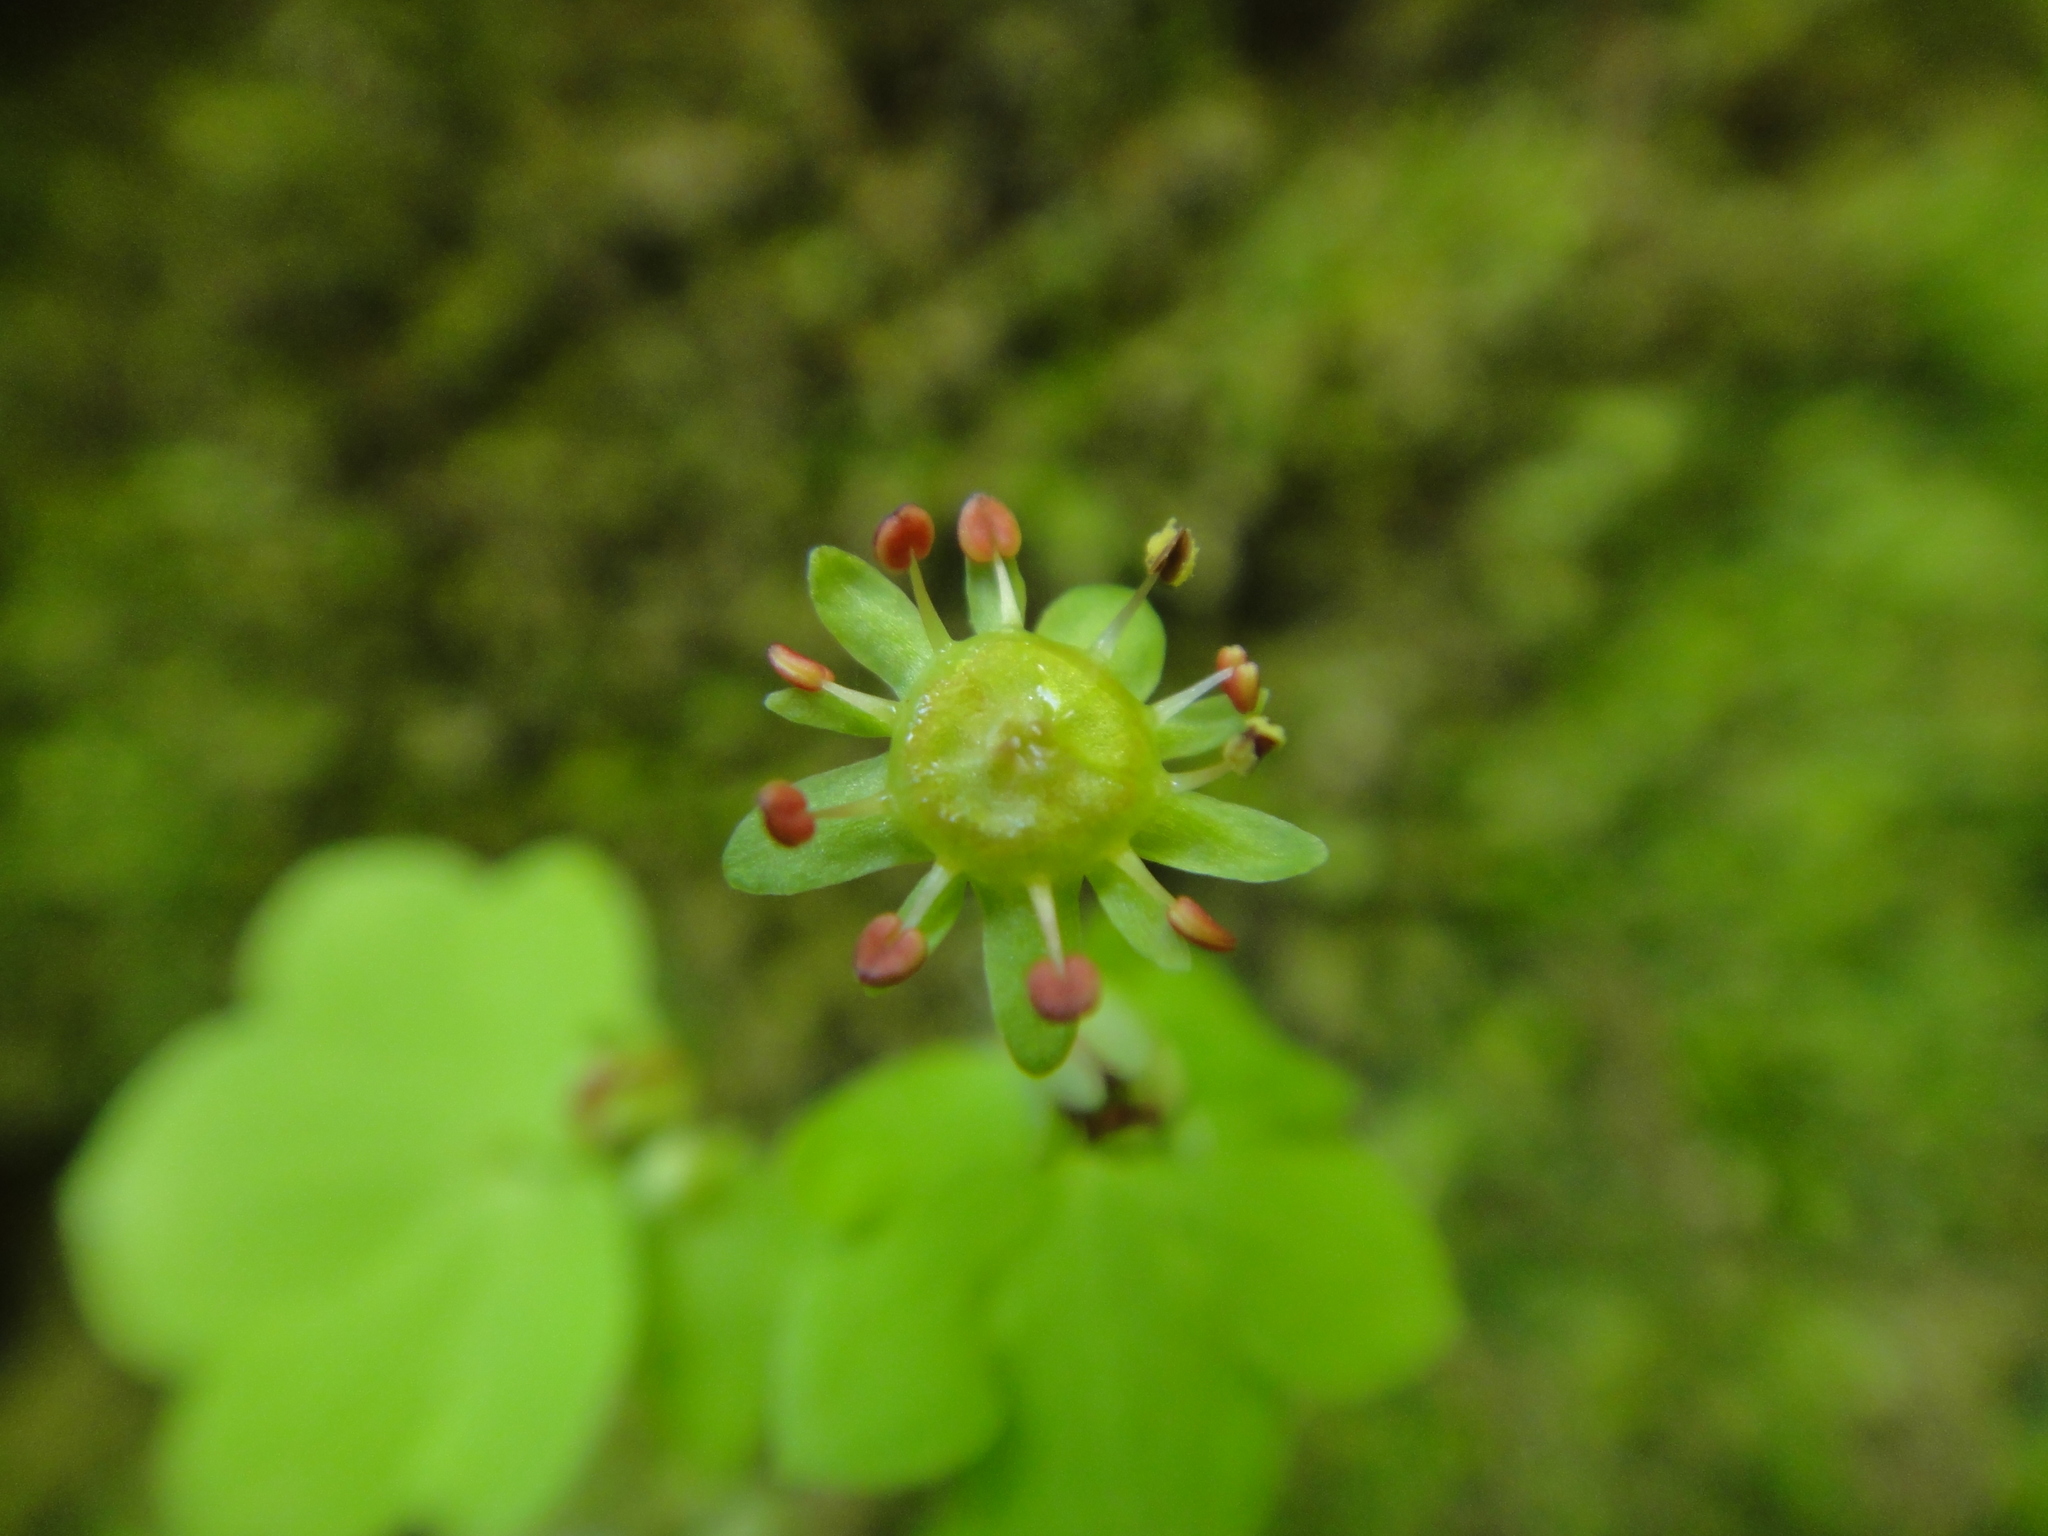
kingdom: Plantae
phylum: Tracheophyta
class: Magnoliopsida
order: Saxifragales
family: Saxifragaceae
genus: Saxifraga
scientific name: Saxifraga paradoxa
